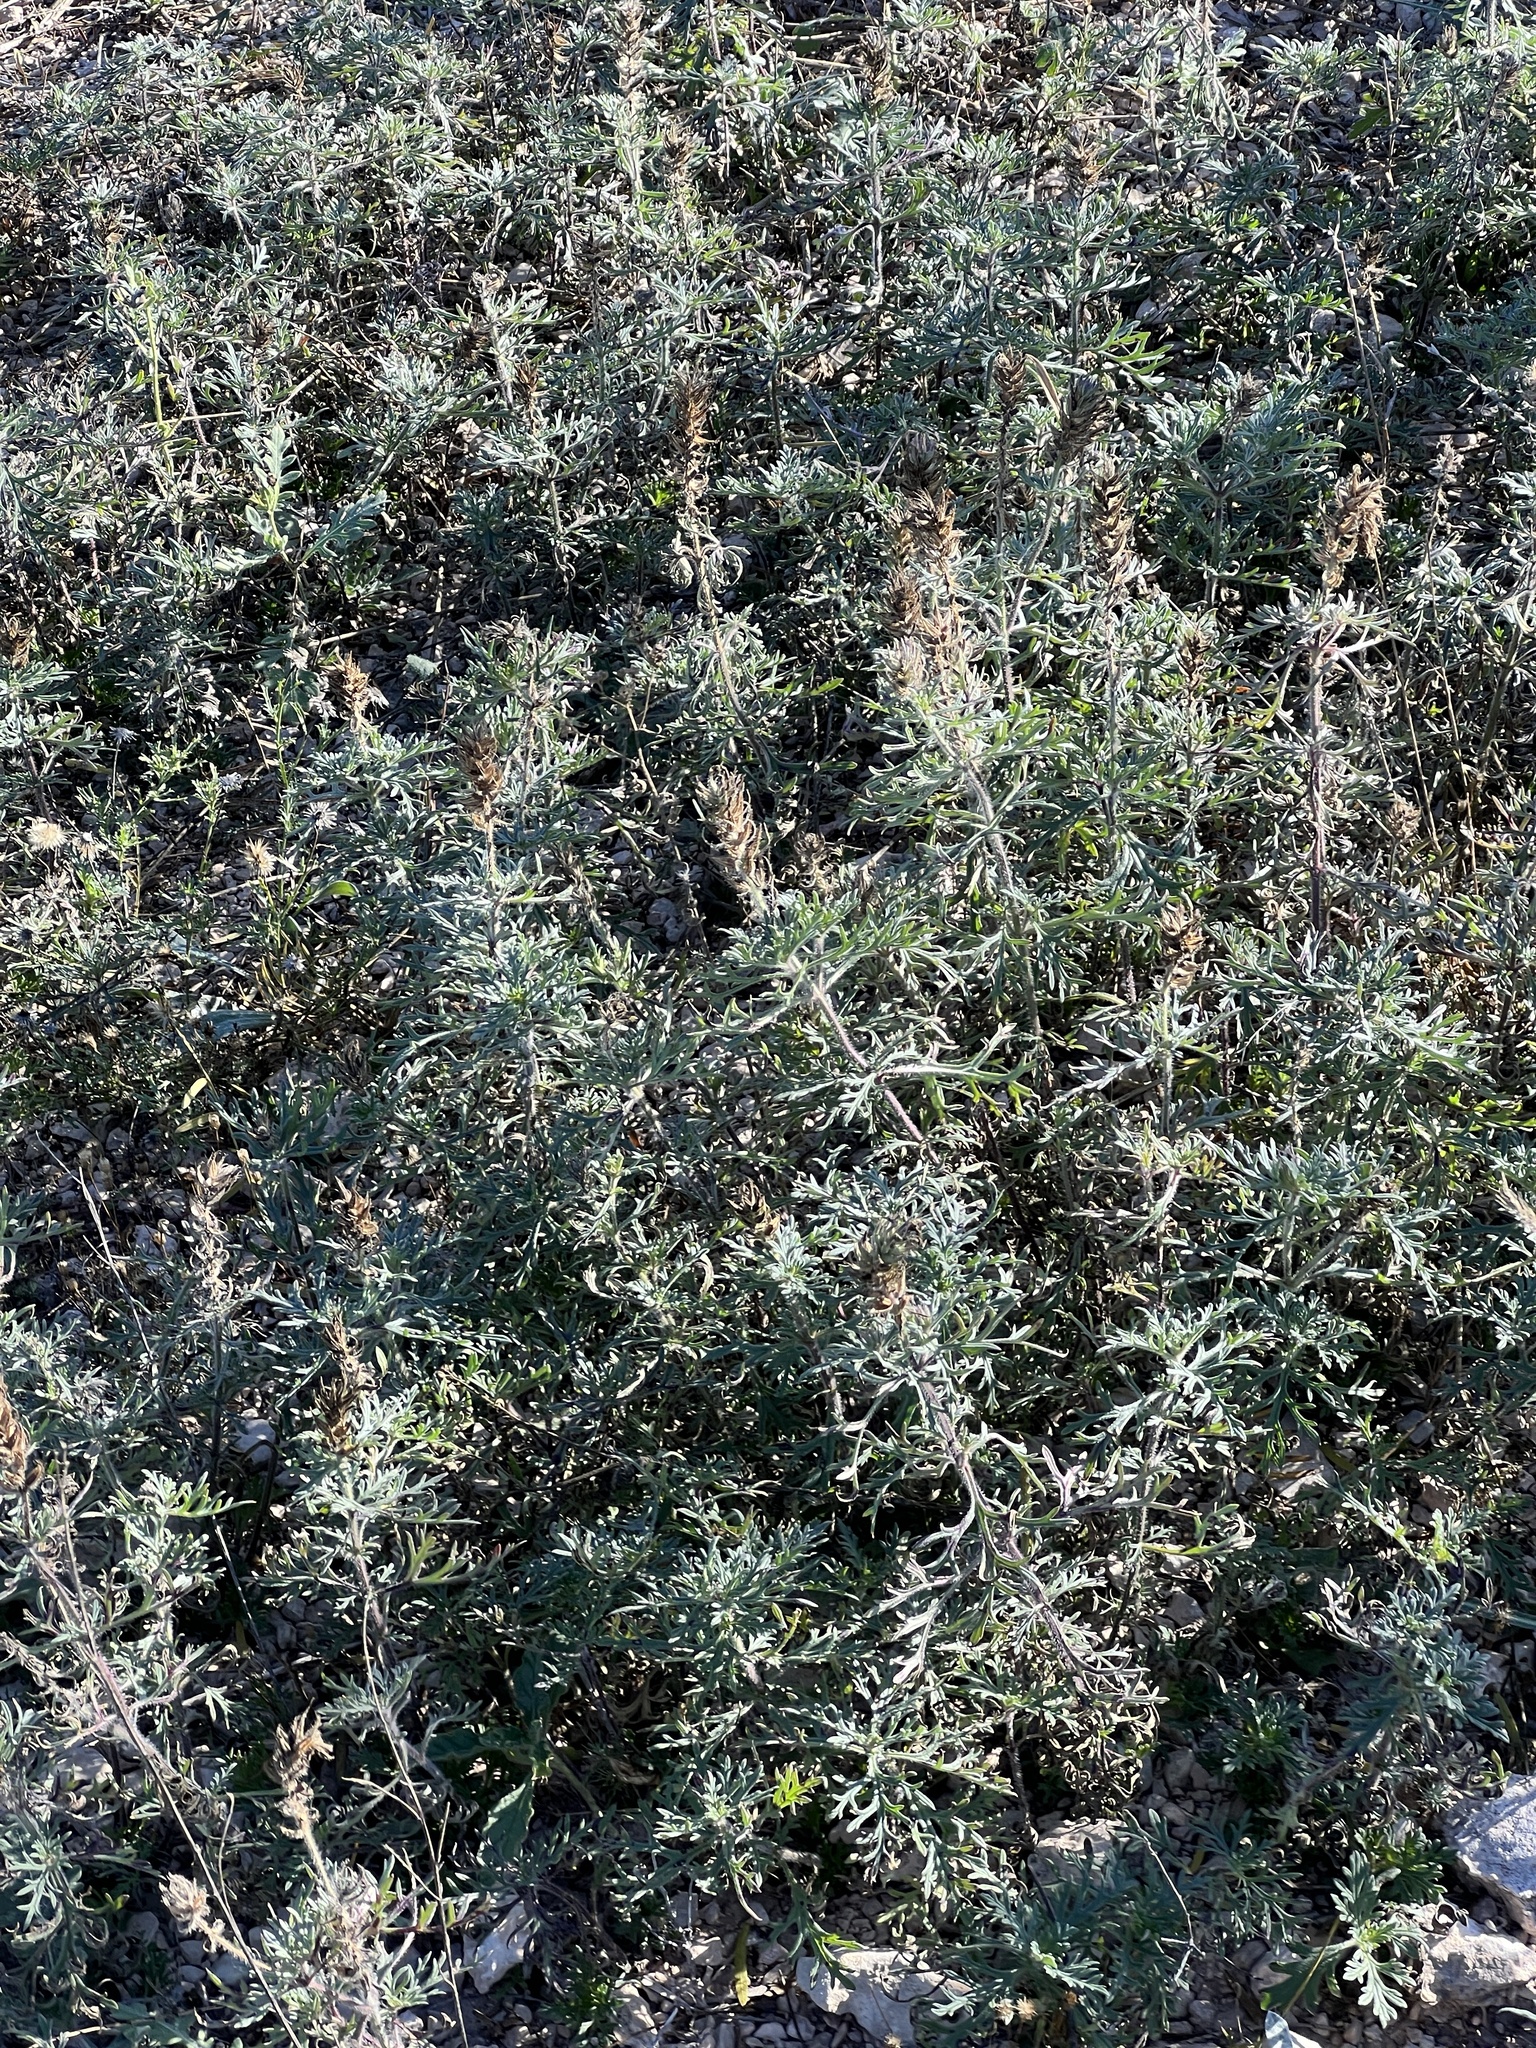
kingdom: Plantae
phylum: Tracheophyta
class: Magnoliopsida
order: Asterales
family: Asteraceae
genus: Helianthus
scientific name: Helianthus ciliaris
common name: Texas blueweed
